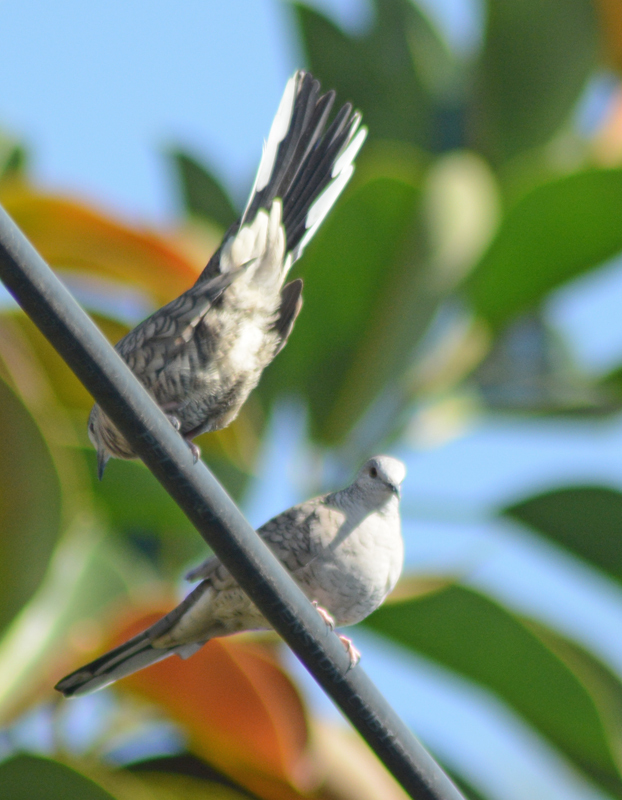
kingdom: Animalia
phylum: Chordata
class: Aves
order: Columbiformes
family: Columbidae
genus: Columbina
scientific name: Columbina inca
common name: Inca dove
